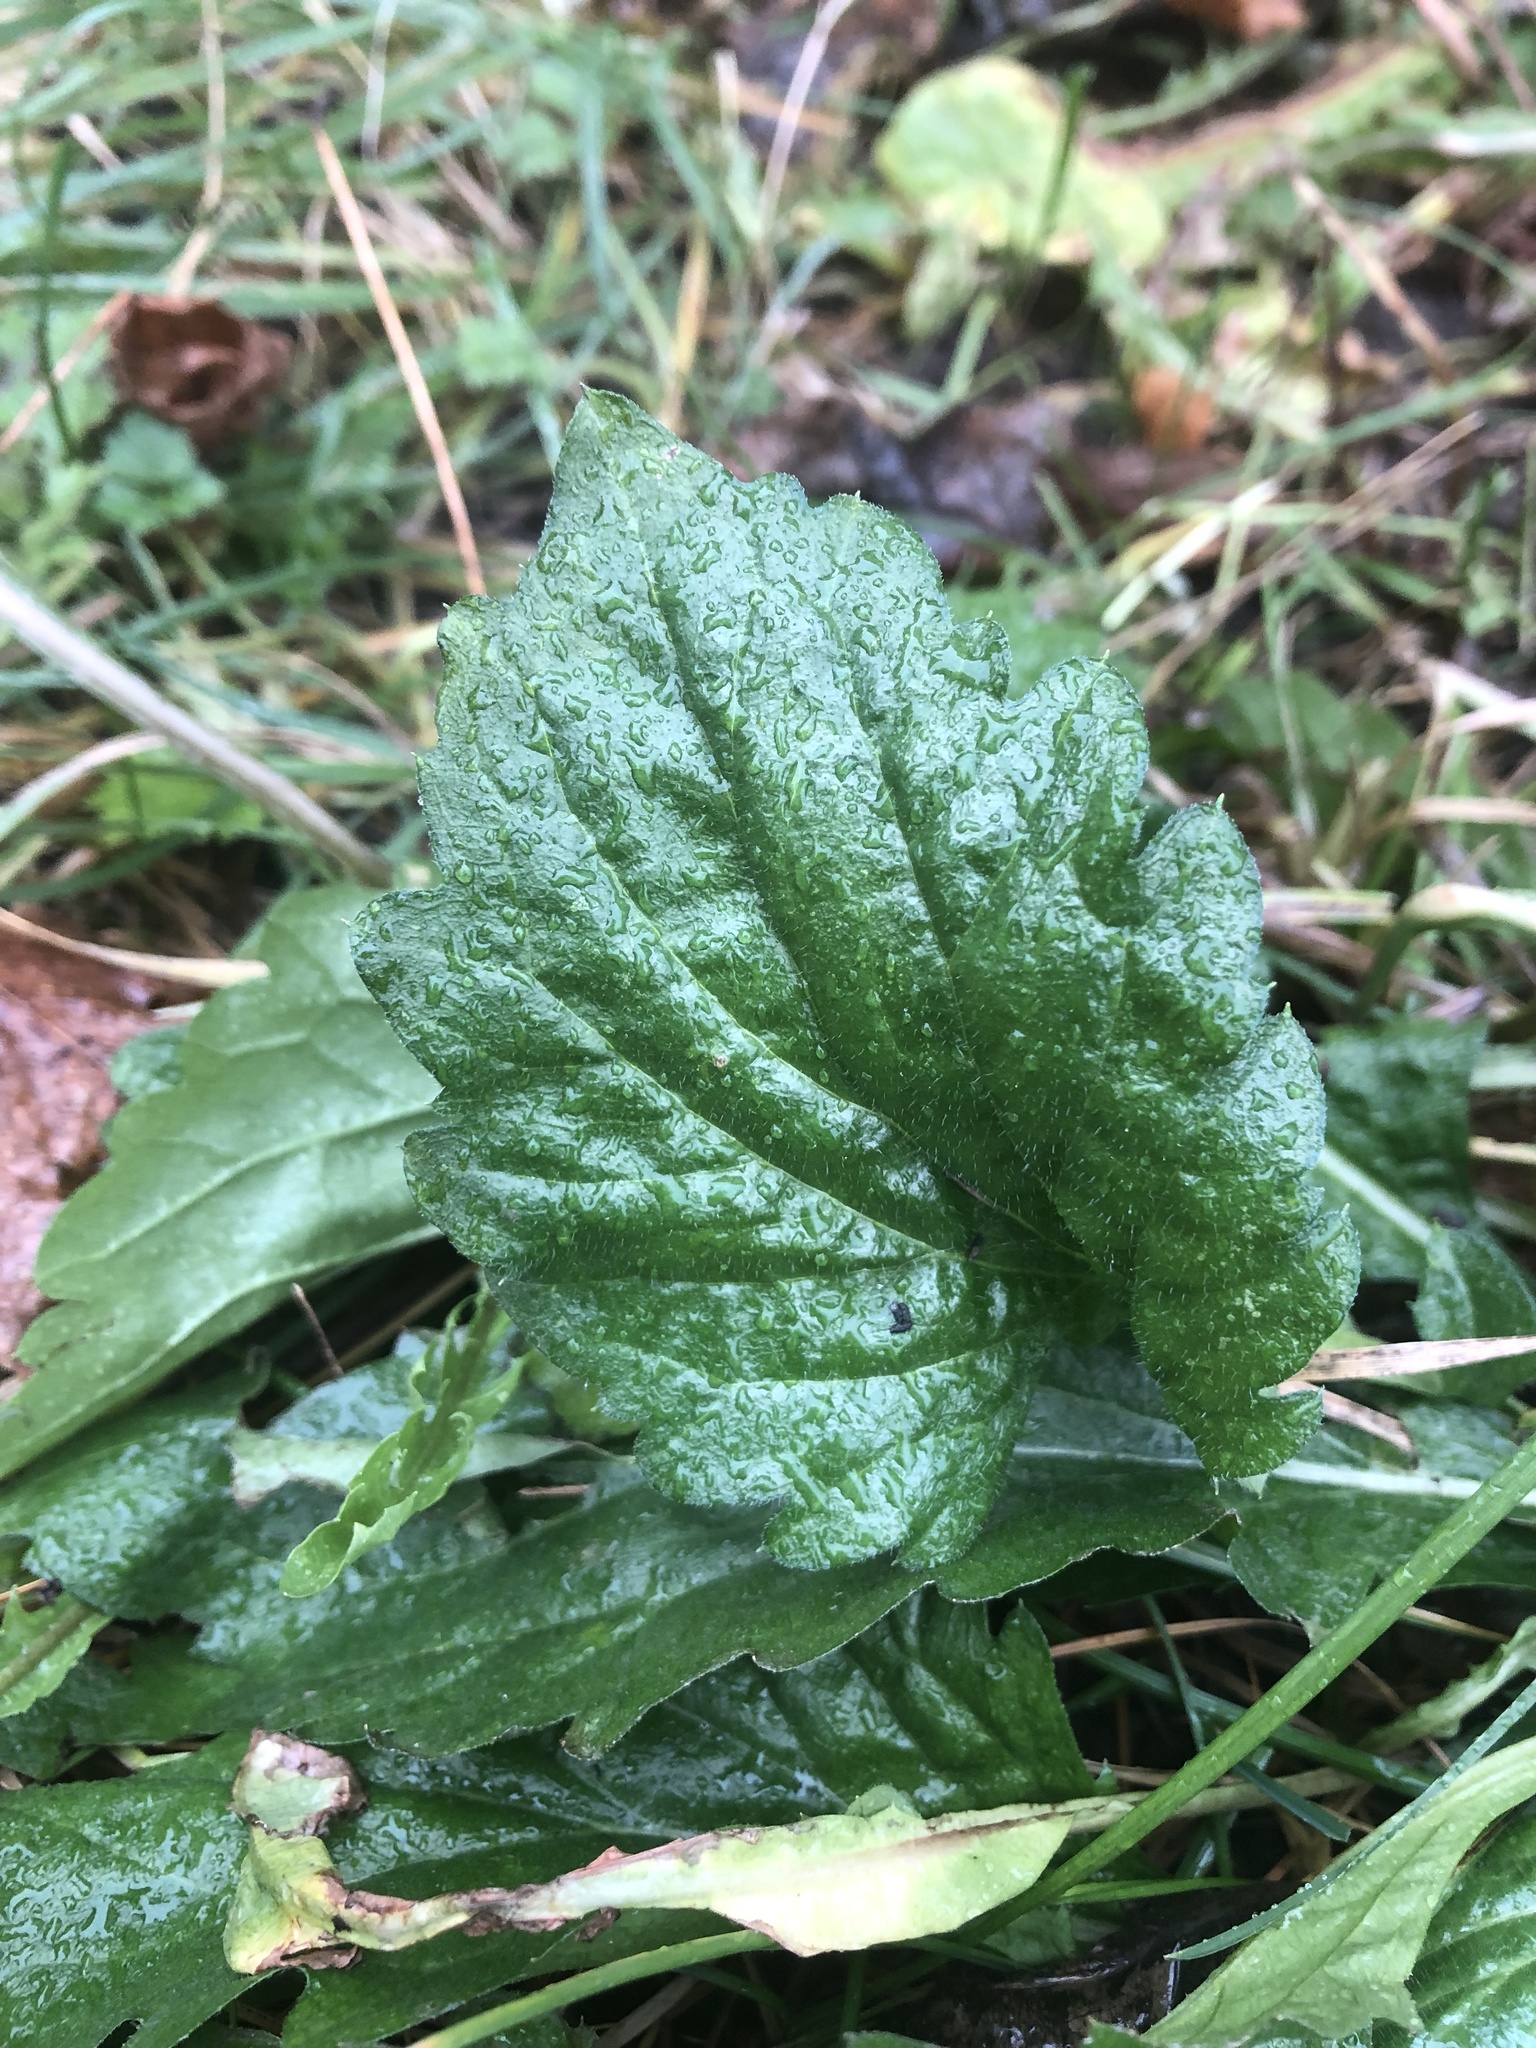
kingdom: Plantae
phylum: Tracheophyta
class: Magnoliopsida
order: Asterales
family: Asteraceae
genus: Erigeron
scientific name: Erigeron annuus
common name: Tall fleabane
